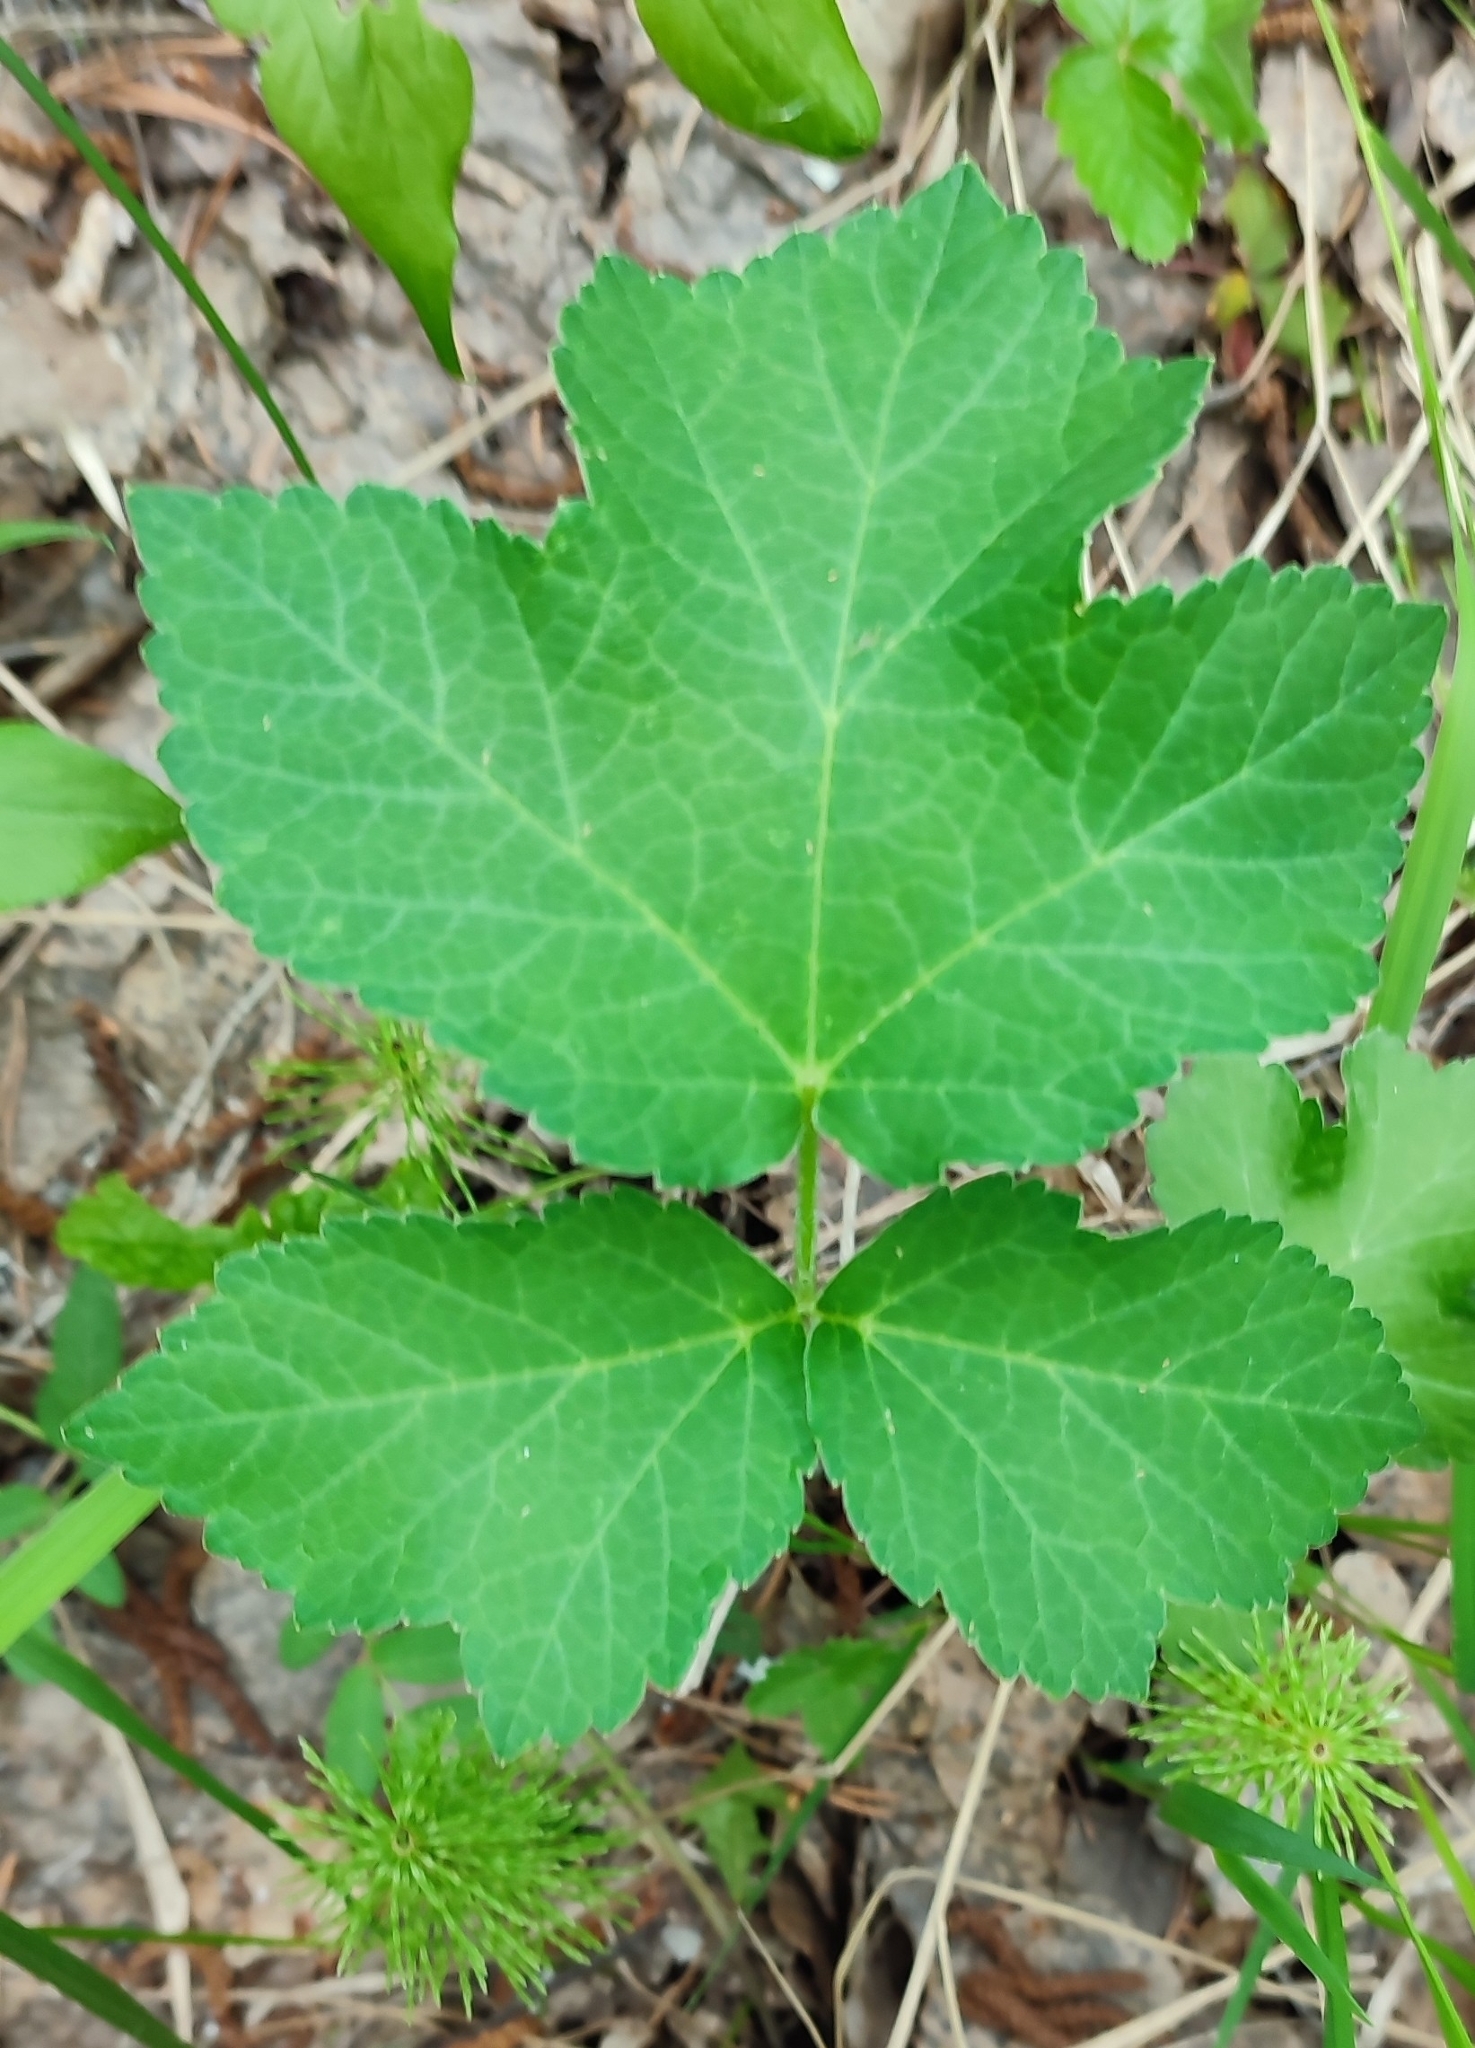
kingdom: Plantae
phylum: Tracheophyta
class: Magnoliopsida
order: Apiales
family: Apiaceae
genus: Heracleum
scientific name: Heracleum sphondylium
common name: Hogweed
